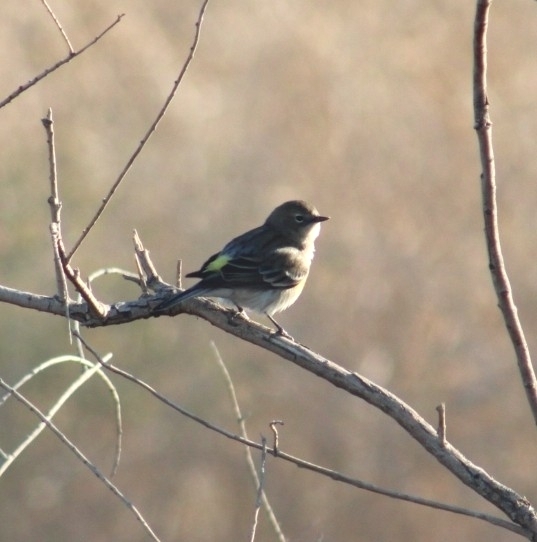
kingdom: Animalia
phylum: Chordata
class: Aves
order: Passeriformes
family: Parulidae
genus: Setophaga
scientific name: Setophaga coronata
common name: Myrtle warbler
